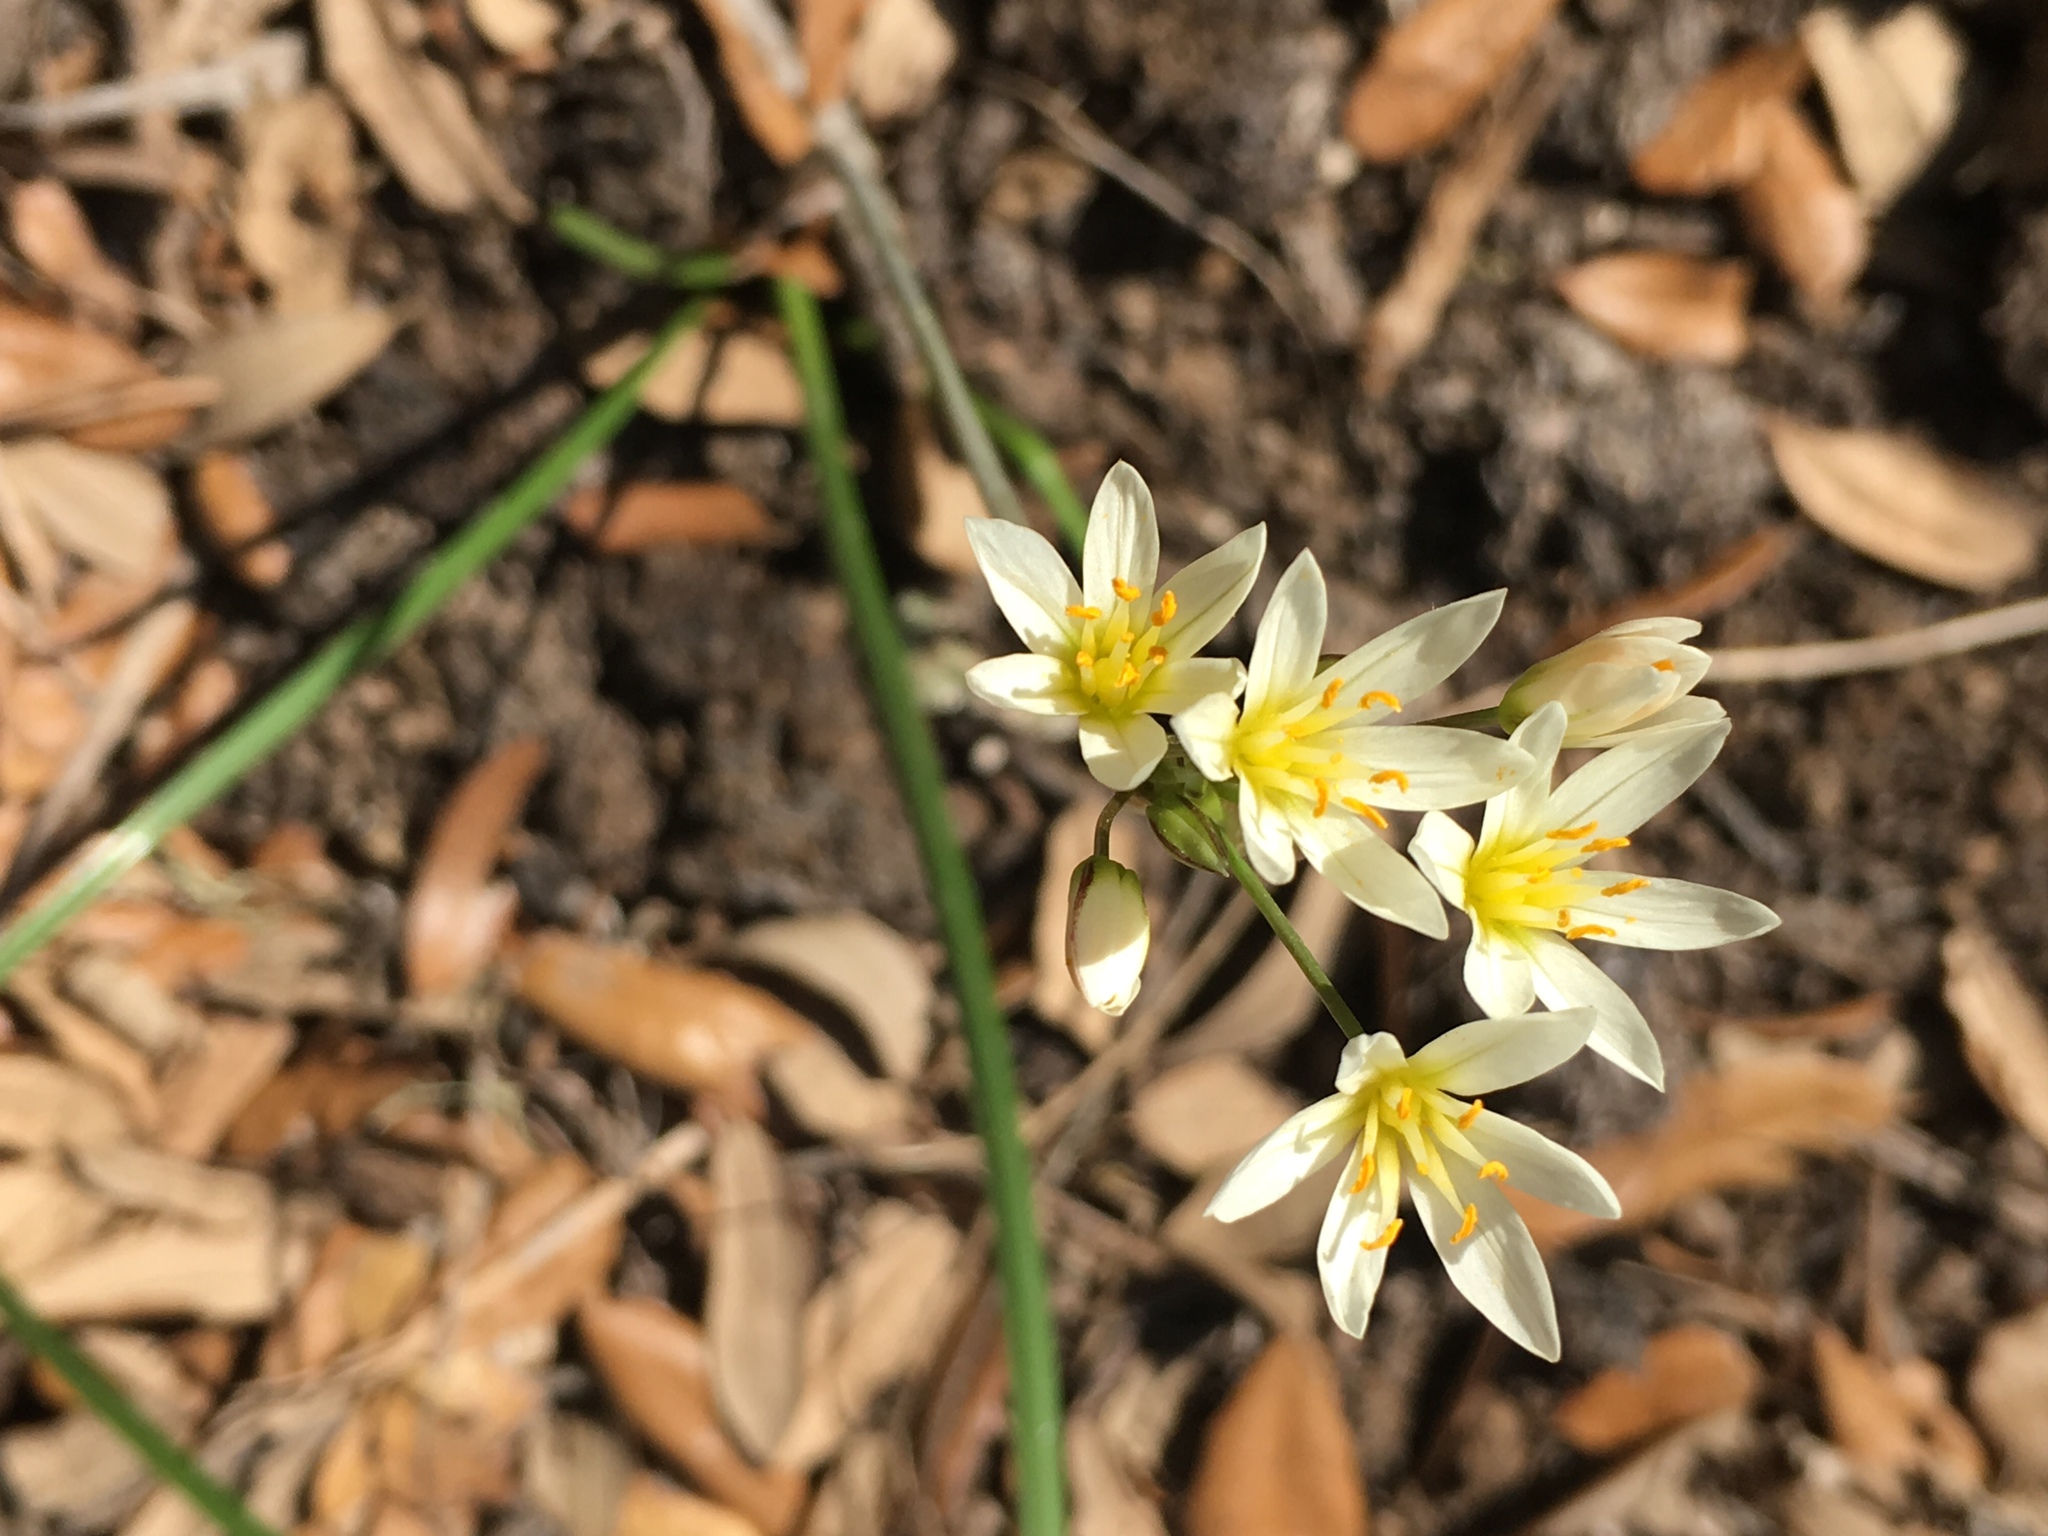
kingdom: Plantae
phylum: Tracheophyta
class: Liliopsida
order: Asparagales
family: Amaryllidaceae
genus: Nothoscordum
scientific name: Nothoscordum bivalve
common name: Crow-poison
